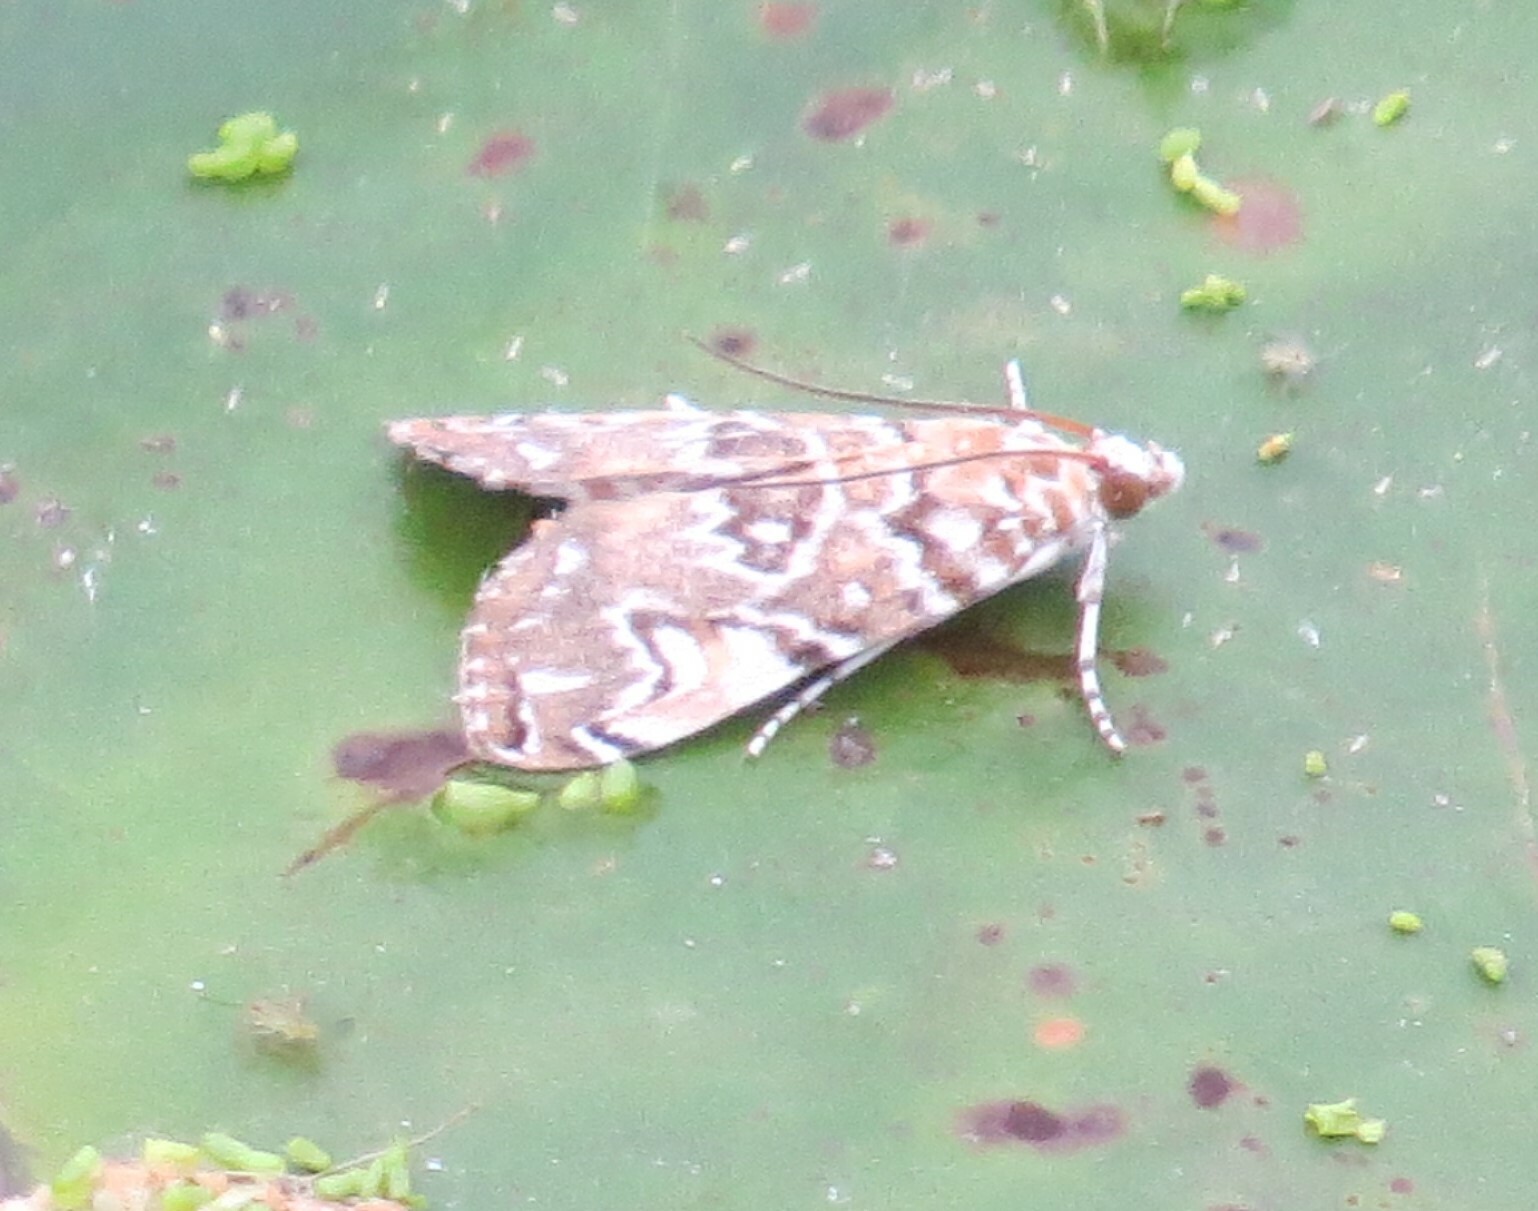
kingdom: Animalia
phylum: Arthropoda
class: Insecta
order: Lepidoptera
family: Crambidae
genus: Elophila
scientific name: Elophila gyralis
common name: Waterlily borer moth
